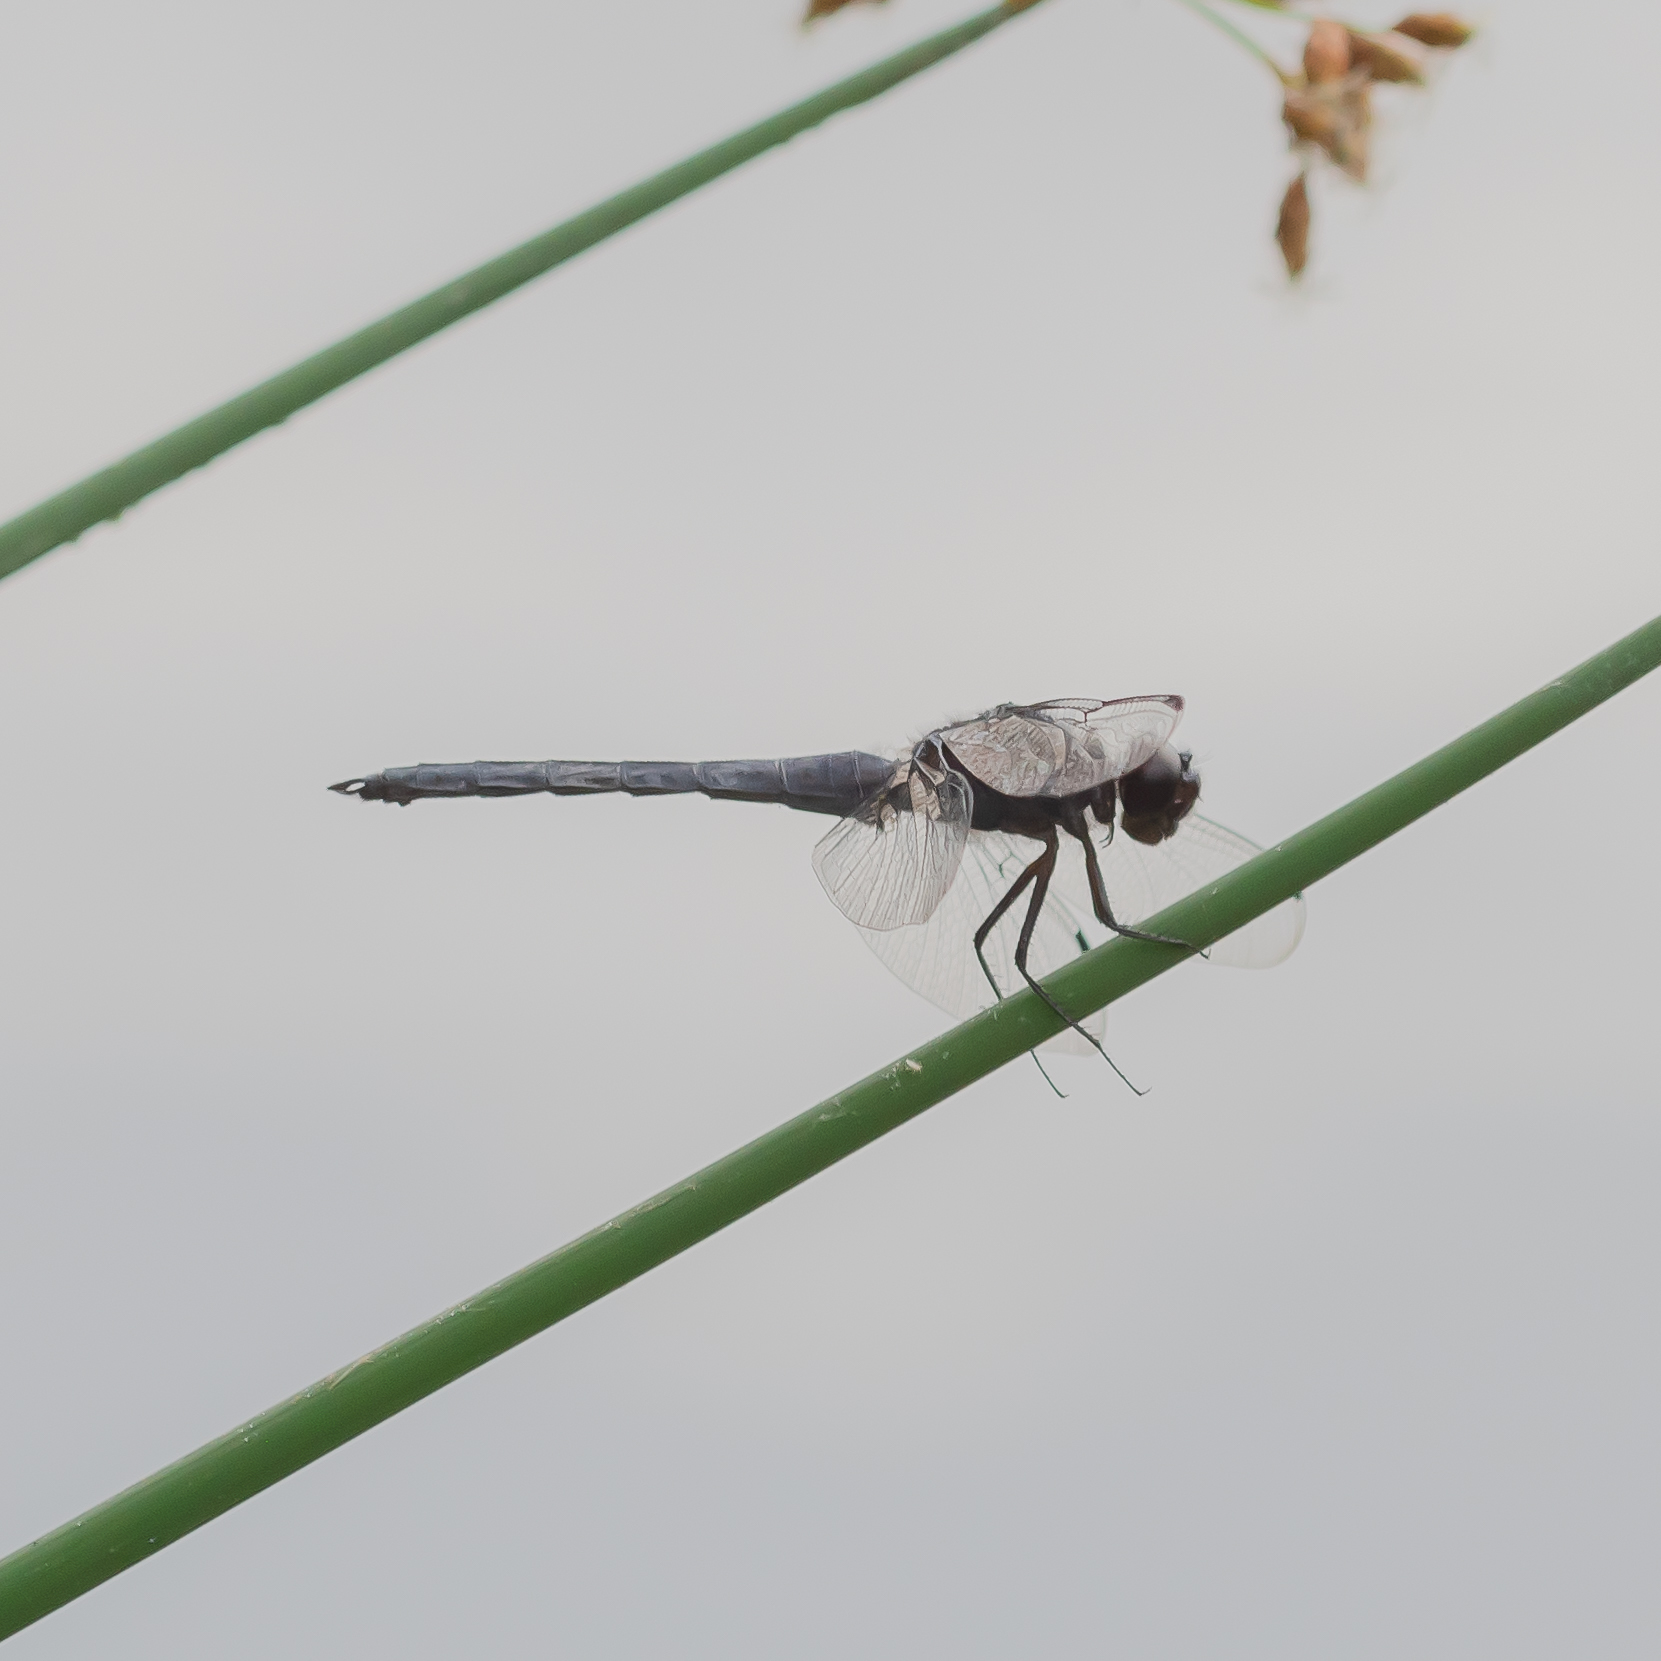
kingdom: Animalia
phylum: Arthropoda
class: Insecta
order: Odonata
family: Libellulidae
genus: Libellula
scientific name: Libellula incesta
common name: Slaty skimmer
